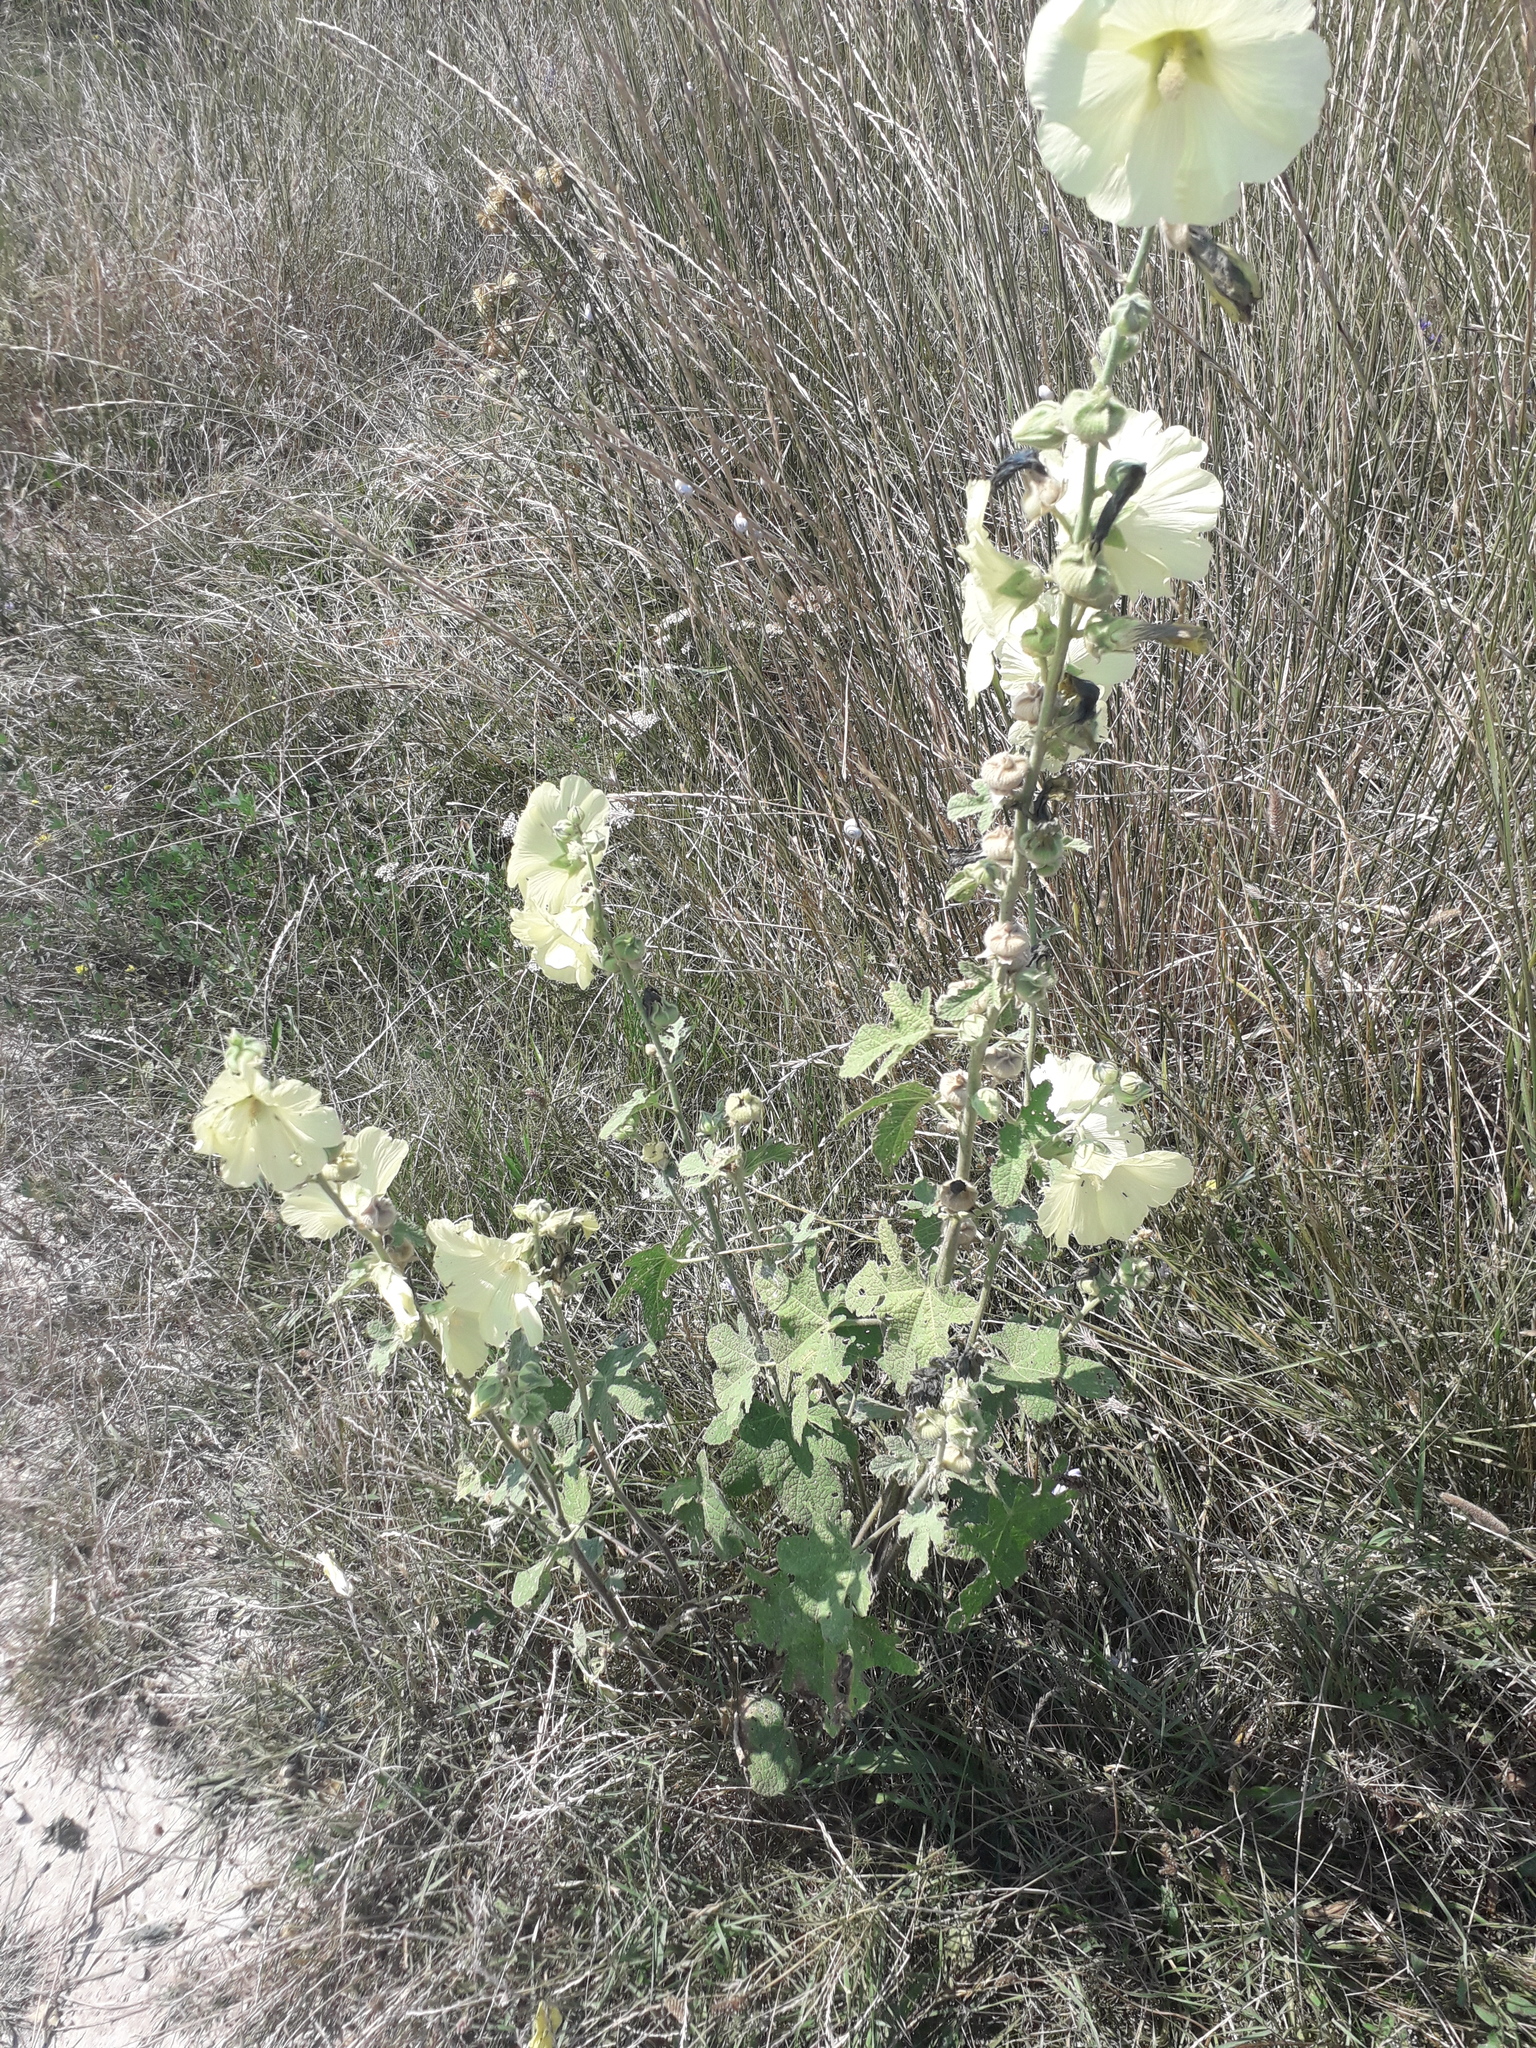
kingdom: Plantae
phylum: Tracheophyta
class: Magnoliopsida
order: Malvales
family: Malvaceae
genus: Alcea
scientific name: Alcea rugosa
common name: Russian hollyhock
